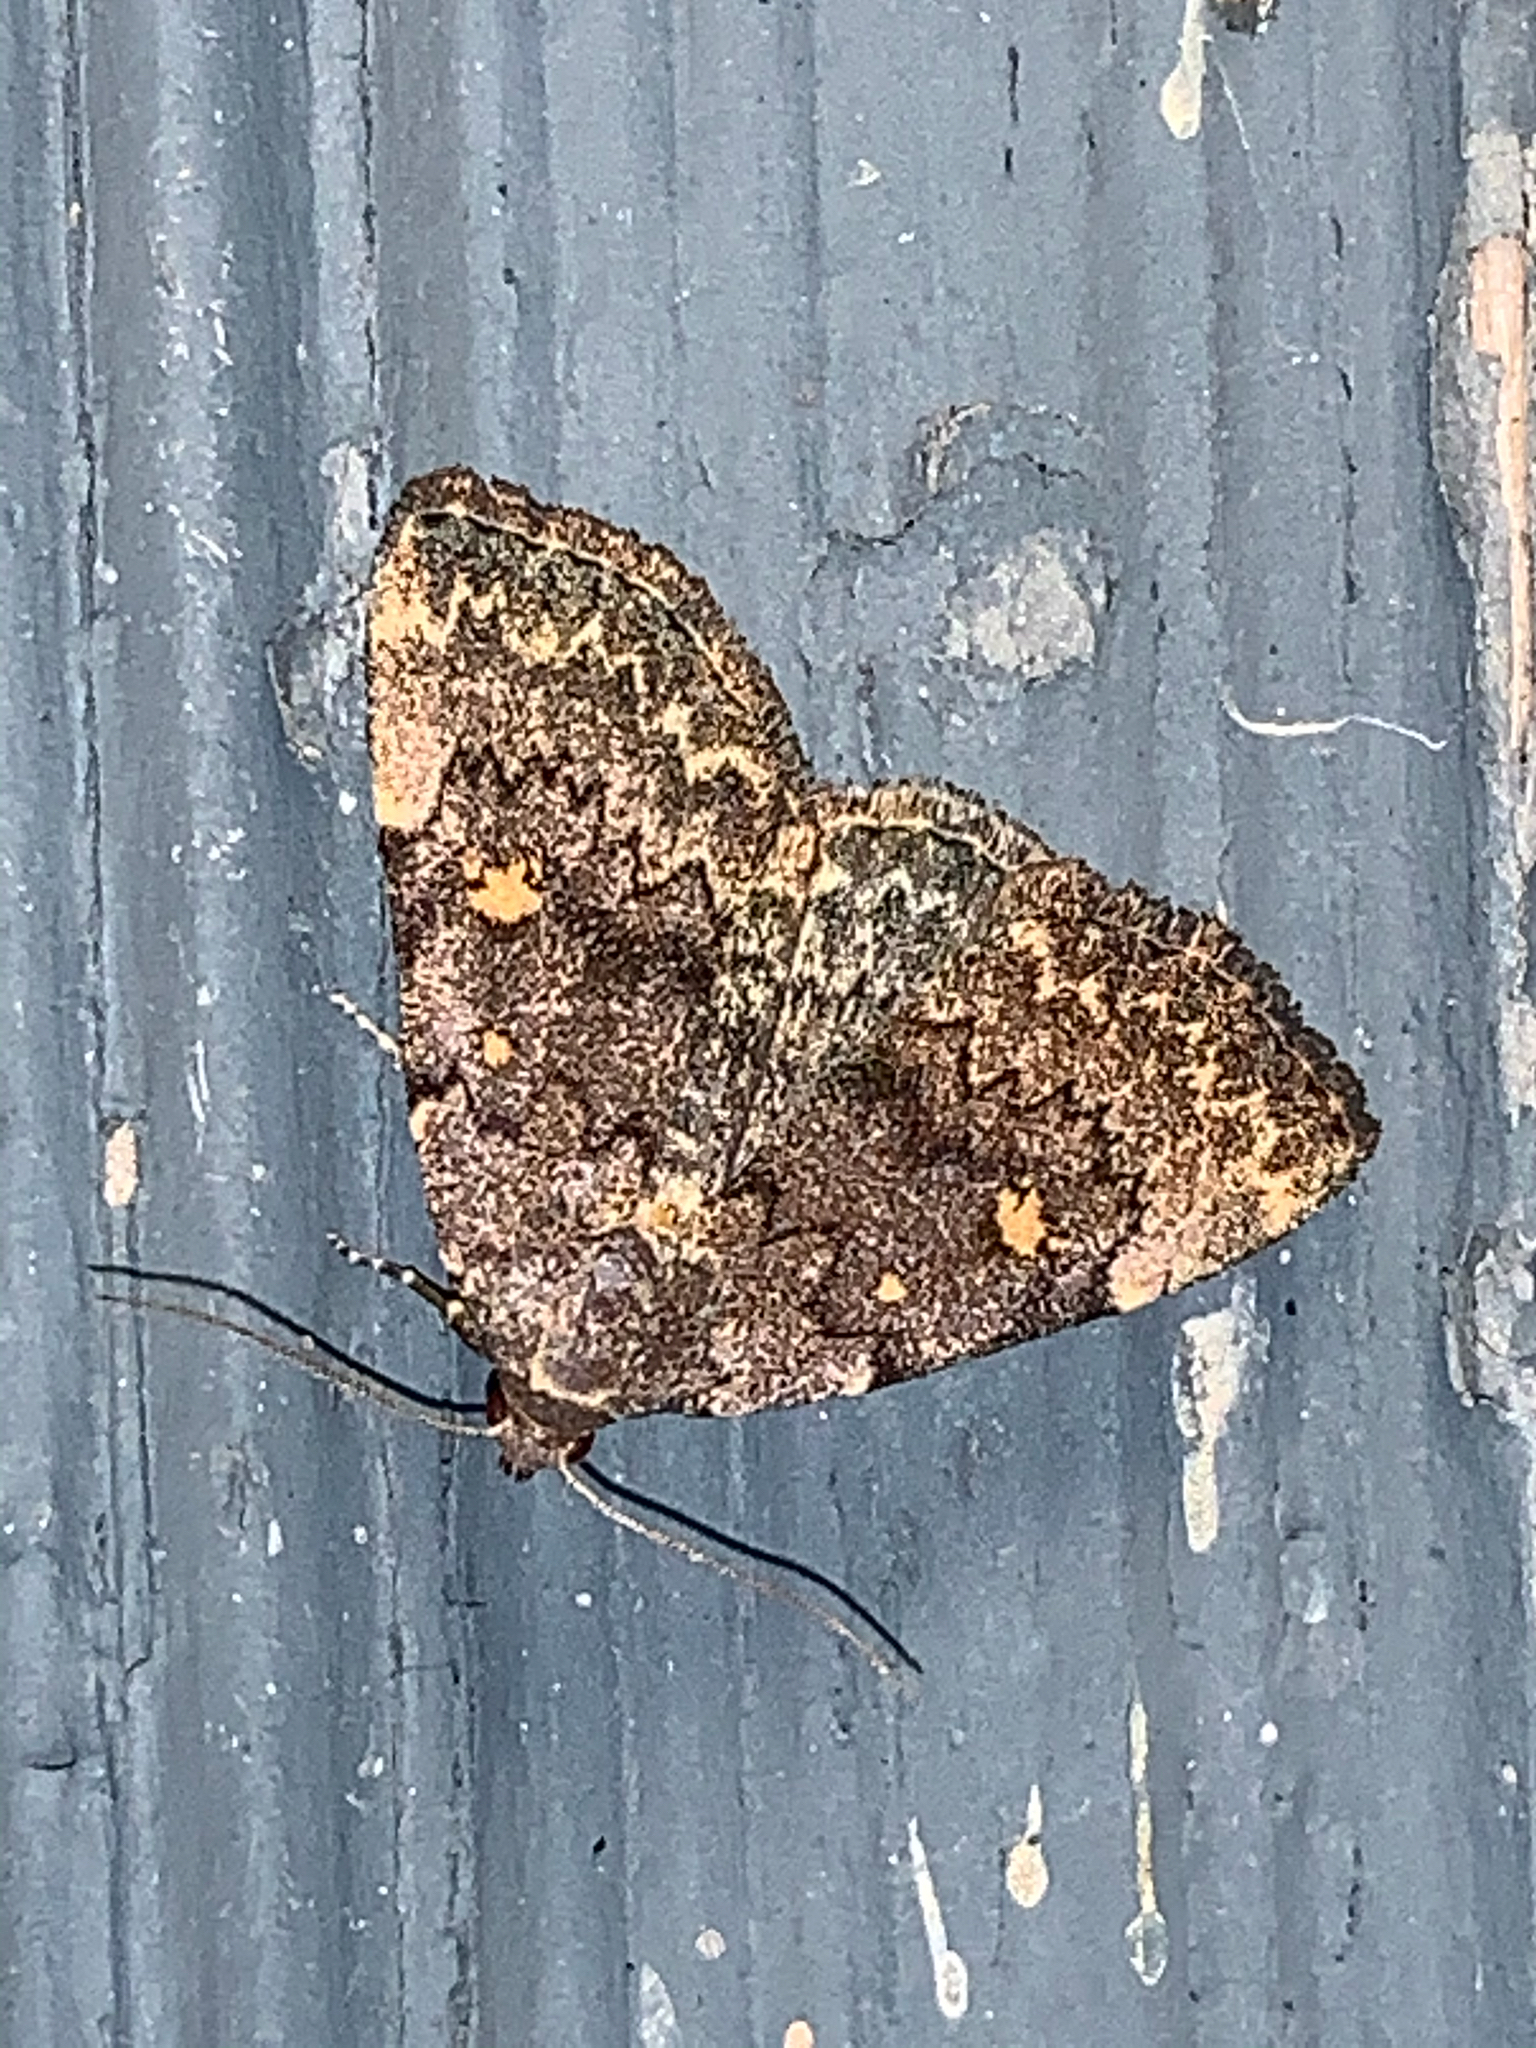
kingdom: Animalia
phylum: Arthropoda
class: Insecta
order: Lepidoptera
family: Erebidae
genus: Idia
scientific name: Idia aemula
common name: Common idia moth
